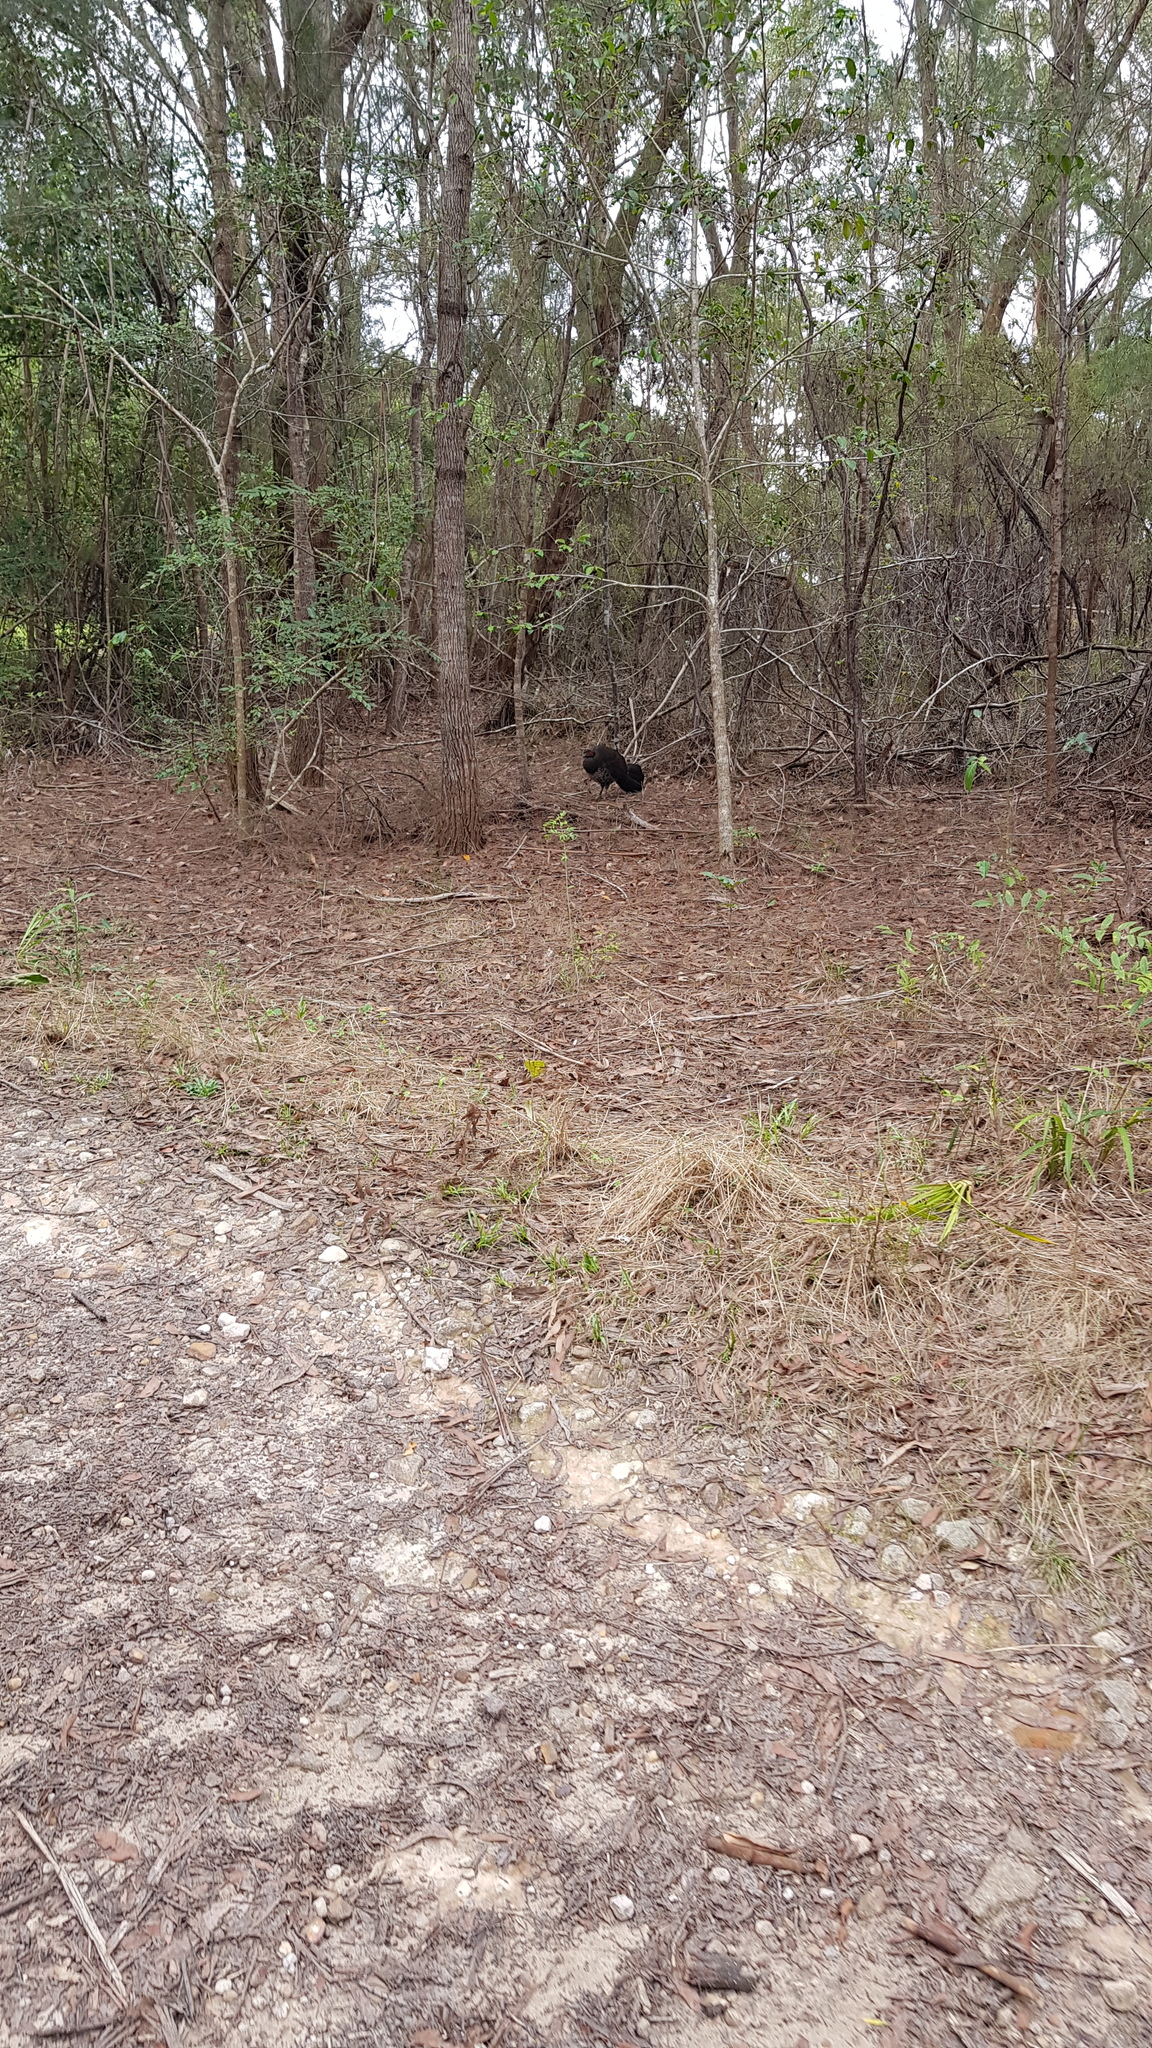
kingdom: Animalia
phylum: Chordata
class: Aves
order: Galliformes
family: Megapodiidae
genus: Alectura
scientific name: Alectura lathami
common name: Australian brushturkey
